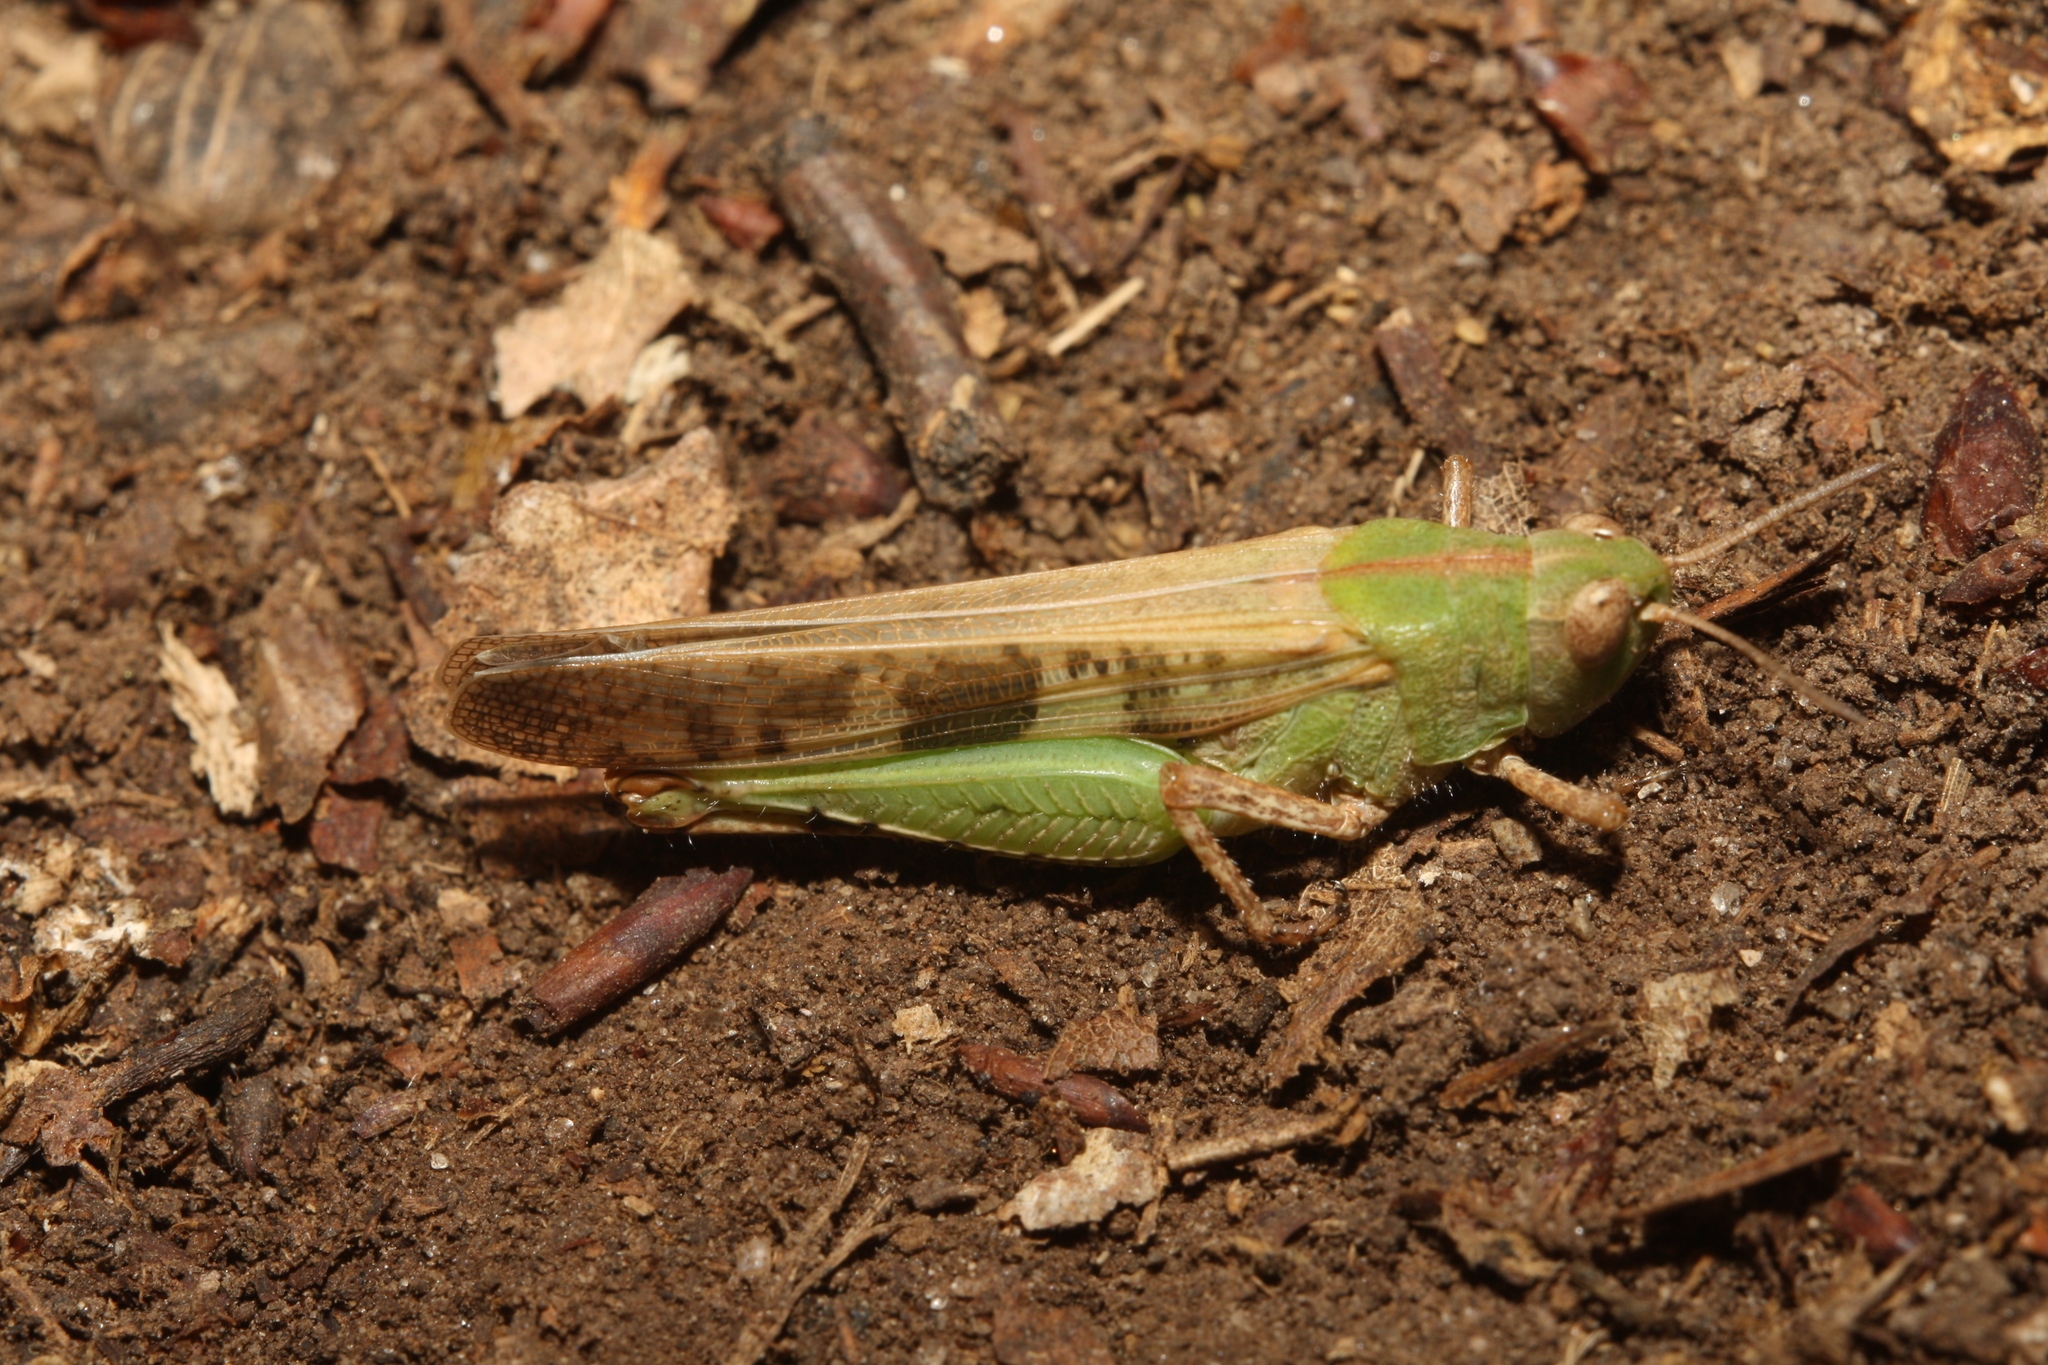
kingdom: Animalia
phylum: Arthropoda
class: Insecta
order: Orthoptera
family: Acrididae
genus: Aiolopus
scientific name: Aiolopus strepens
